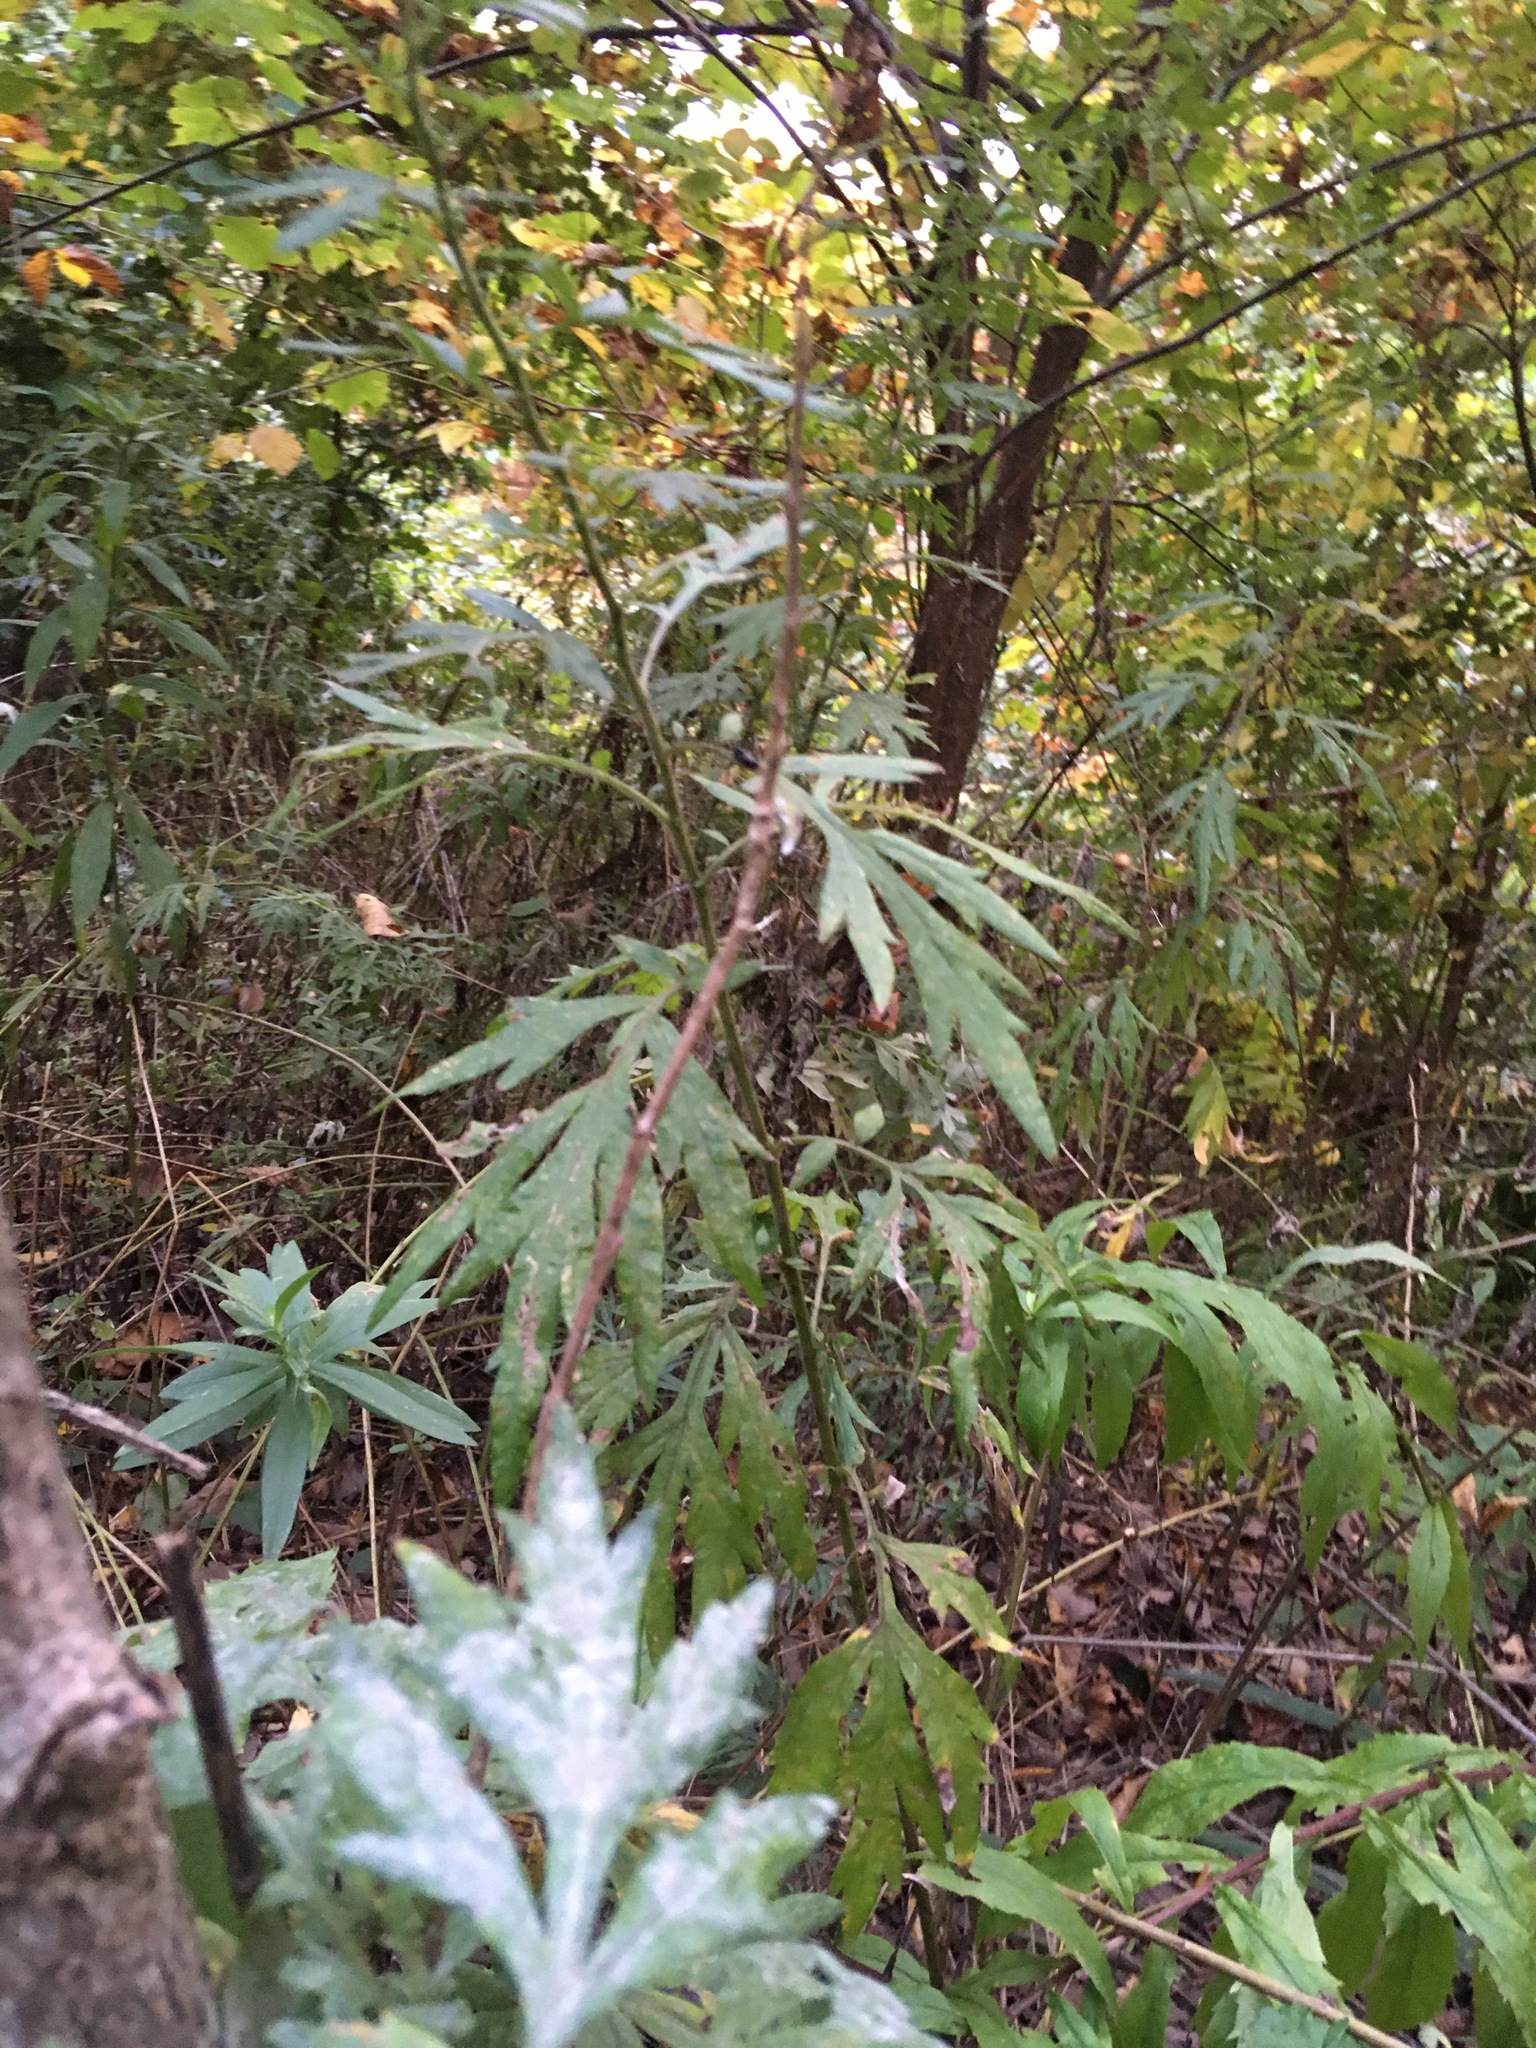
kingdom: Plantae
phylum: Tracheophyta
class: Magnoliopsida
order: Asterales
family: Asteraceae
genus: Artemisia
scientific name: Artemisia vulgaris
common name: Mugwort
